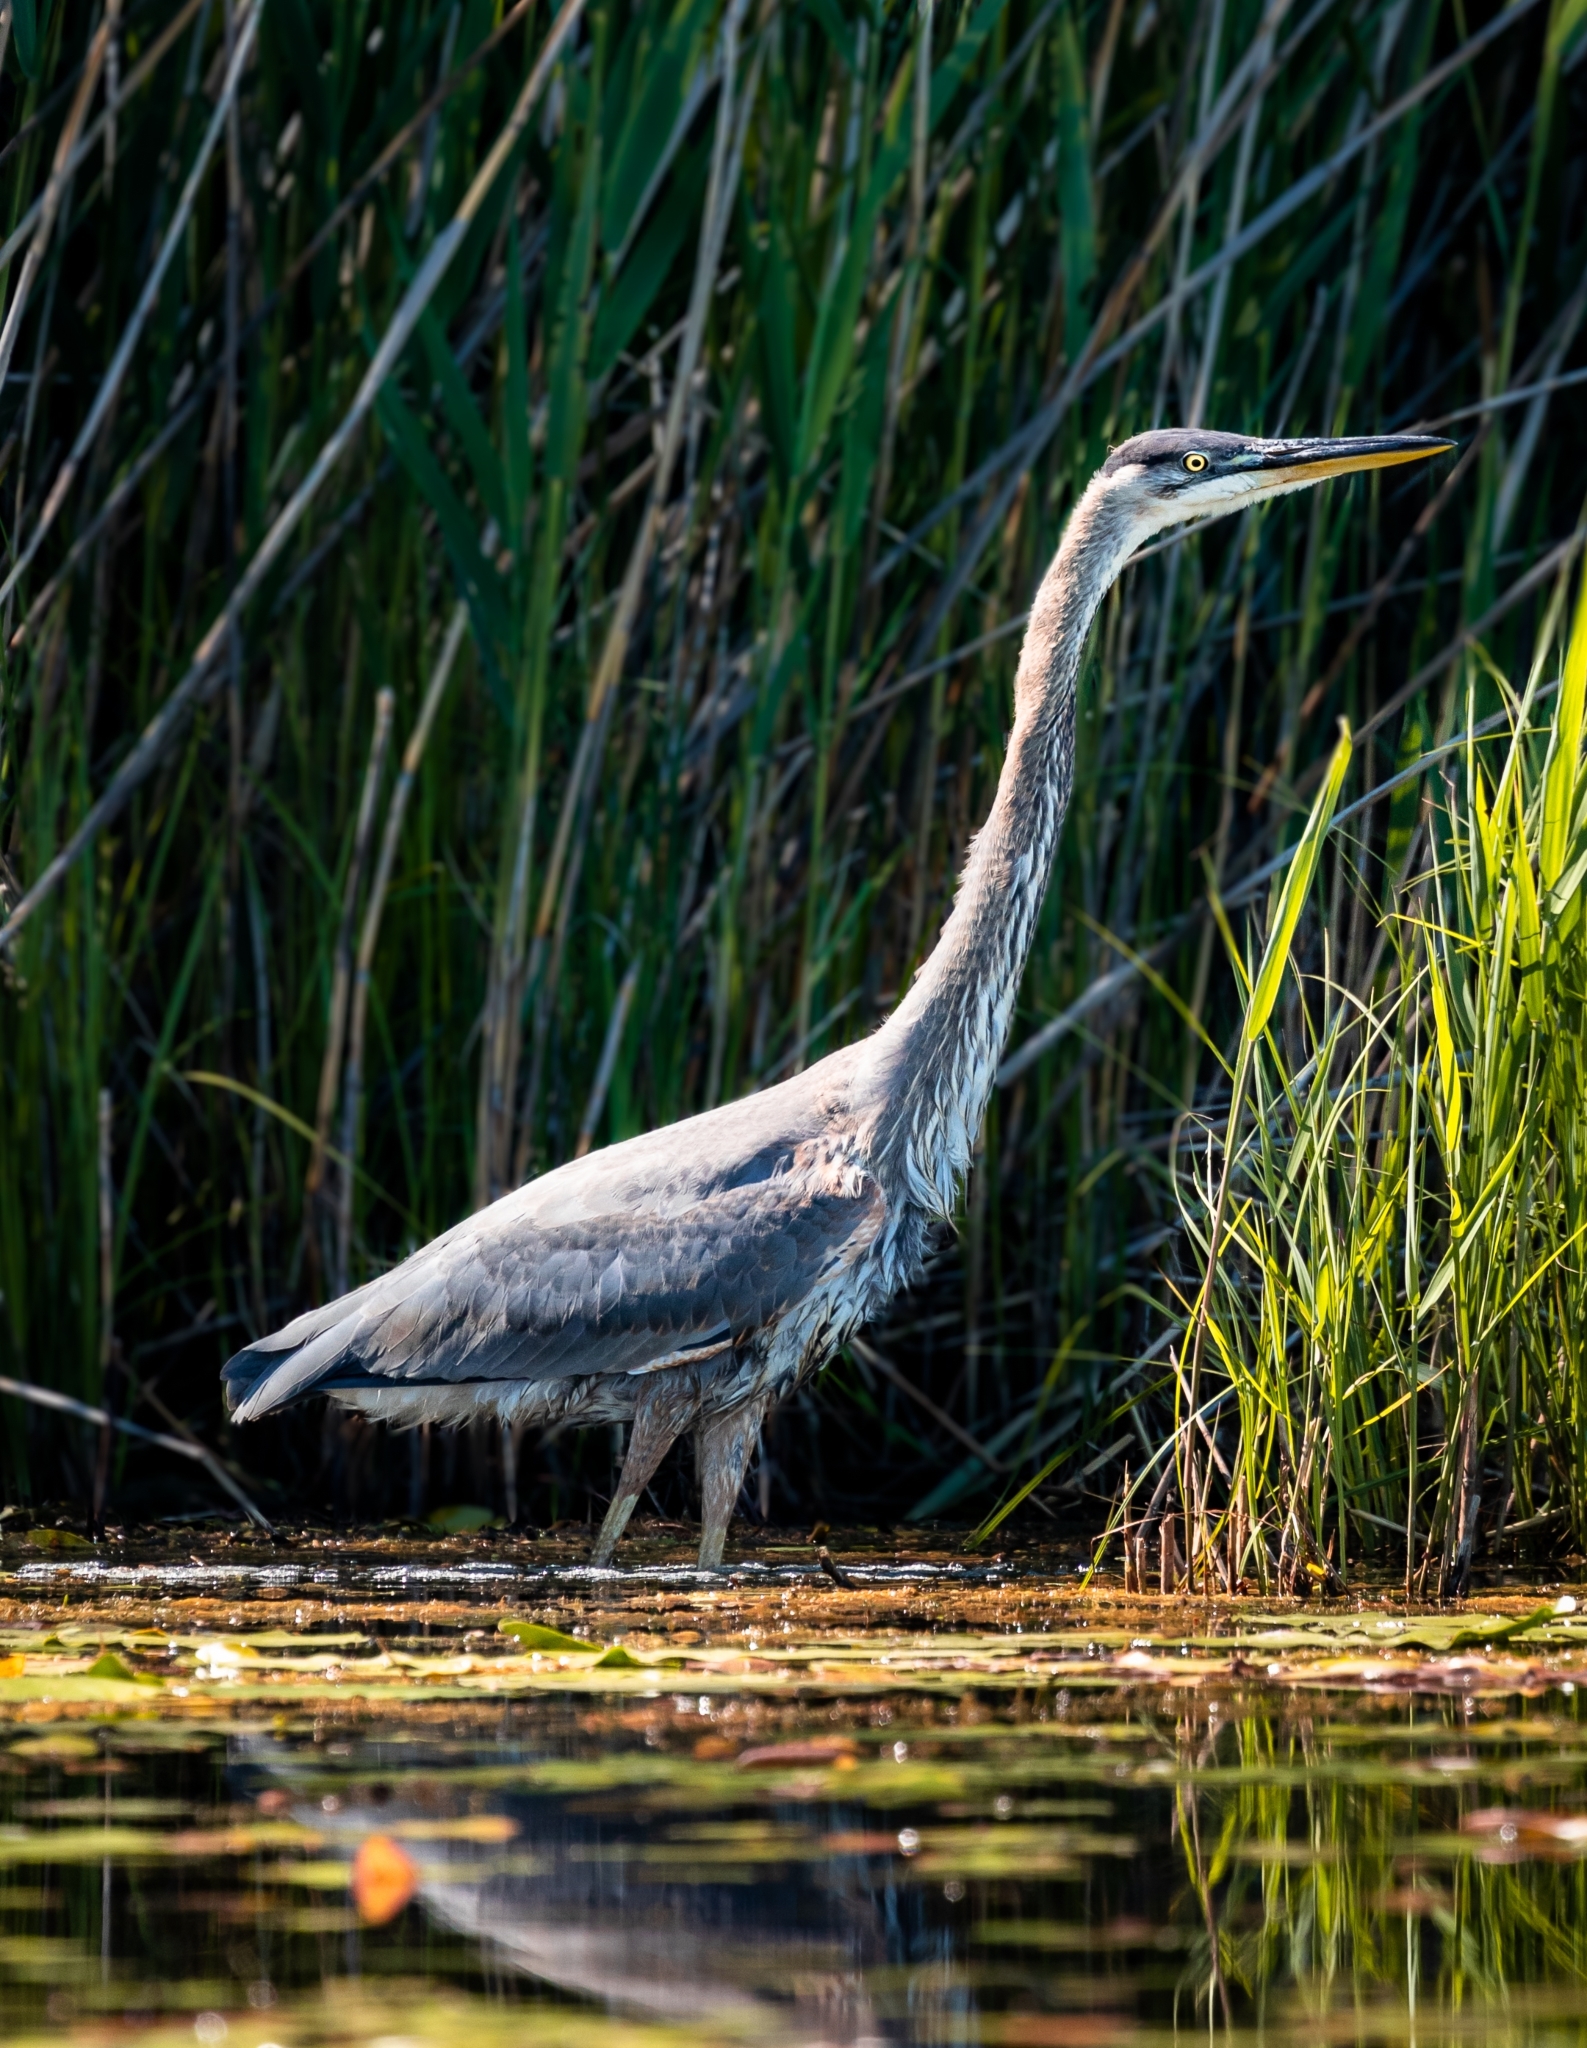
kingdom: Animalia
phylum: Chordata
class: Aves
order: Pelecaniformes
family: Ardeidae
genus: Ardea
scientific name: Ardea herodias
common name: Great blue heron
